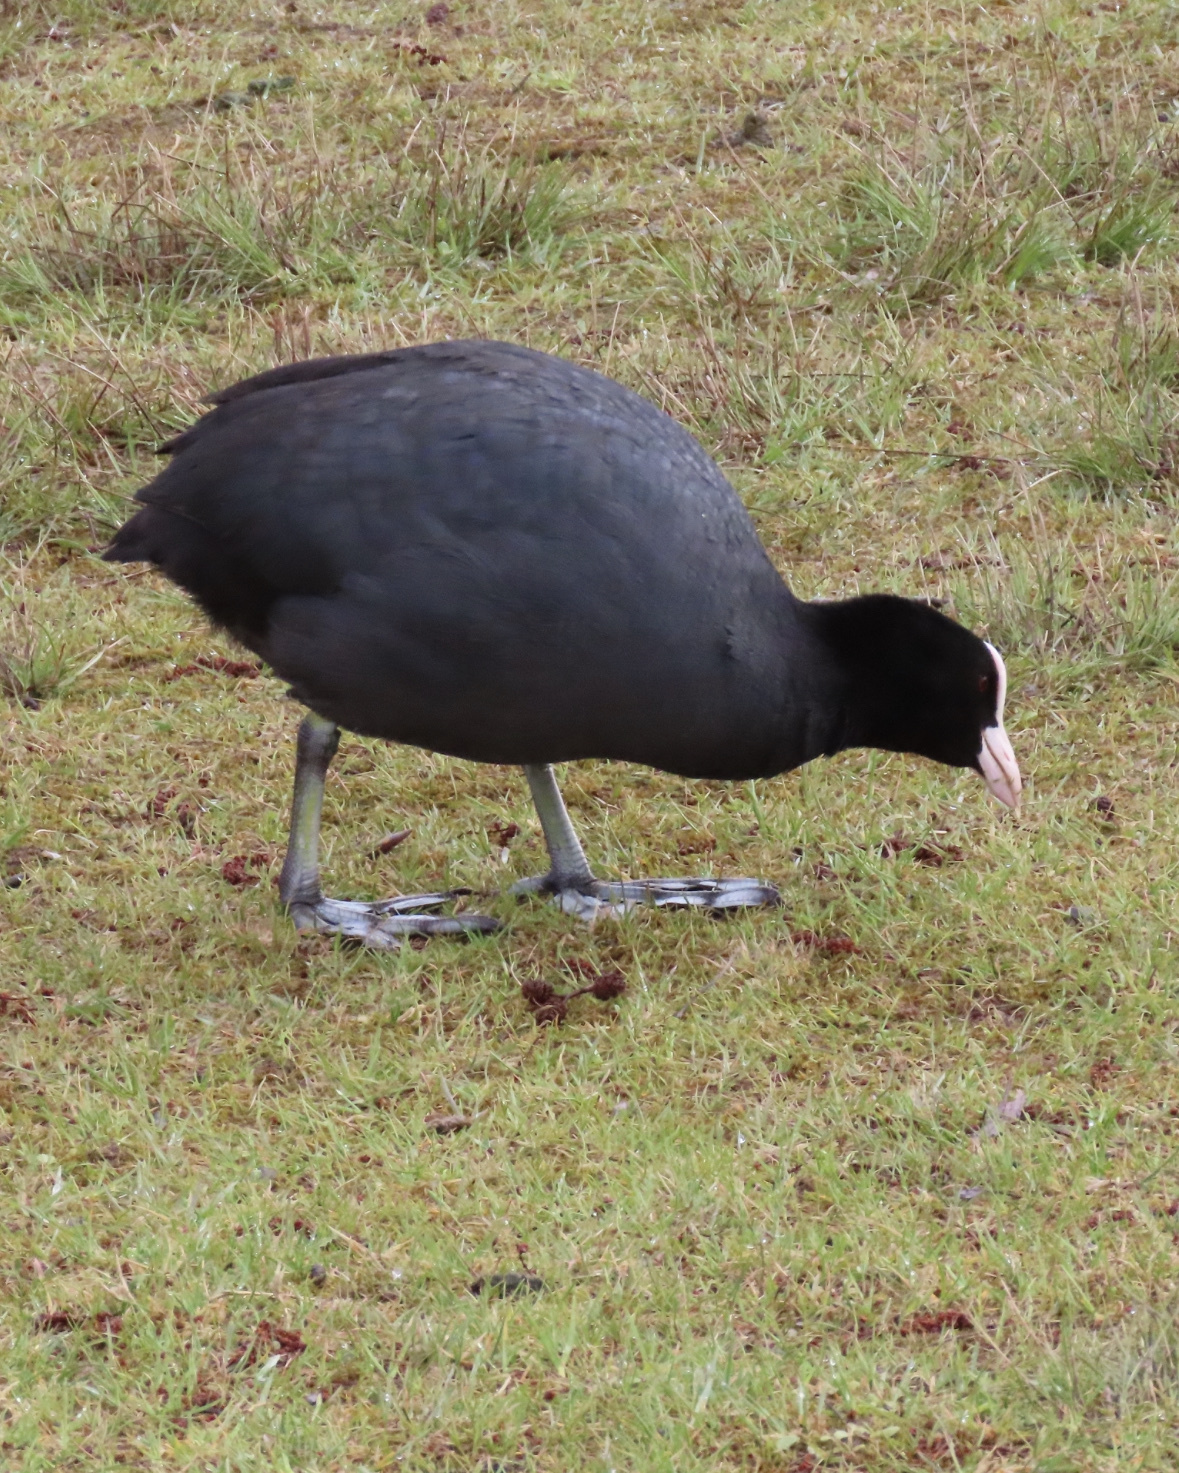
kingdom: Animalia
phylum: Chordata
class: Aves
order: Gruiformes
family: Rallidae
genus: Fulica
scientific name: Fulica atra
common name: Eurasian coot
